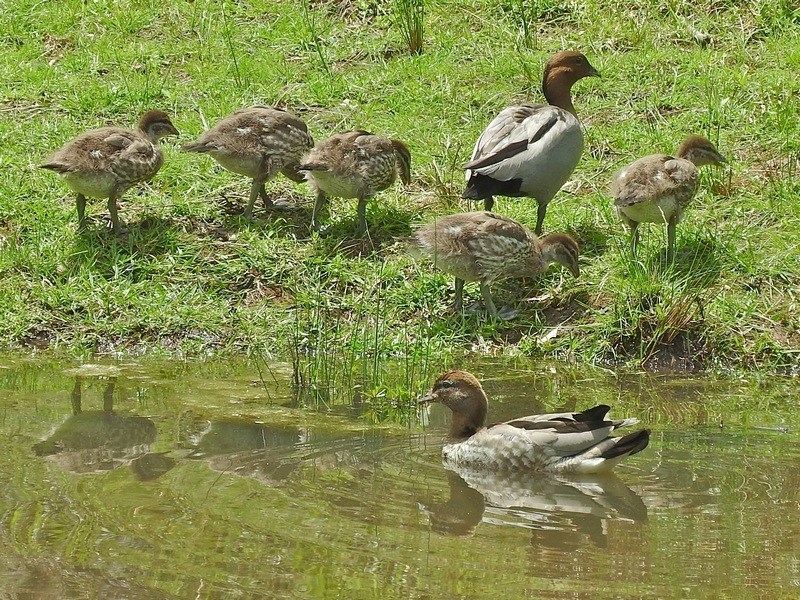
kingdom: Animalia
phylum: Chordata
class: Aves
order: Anseriformes
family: Anatidae
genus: Chenonetta
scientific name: Chenonetta jubata
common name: Maned duck
